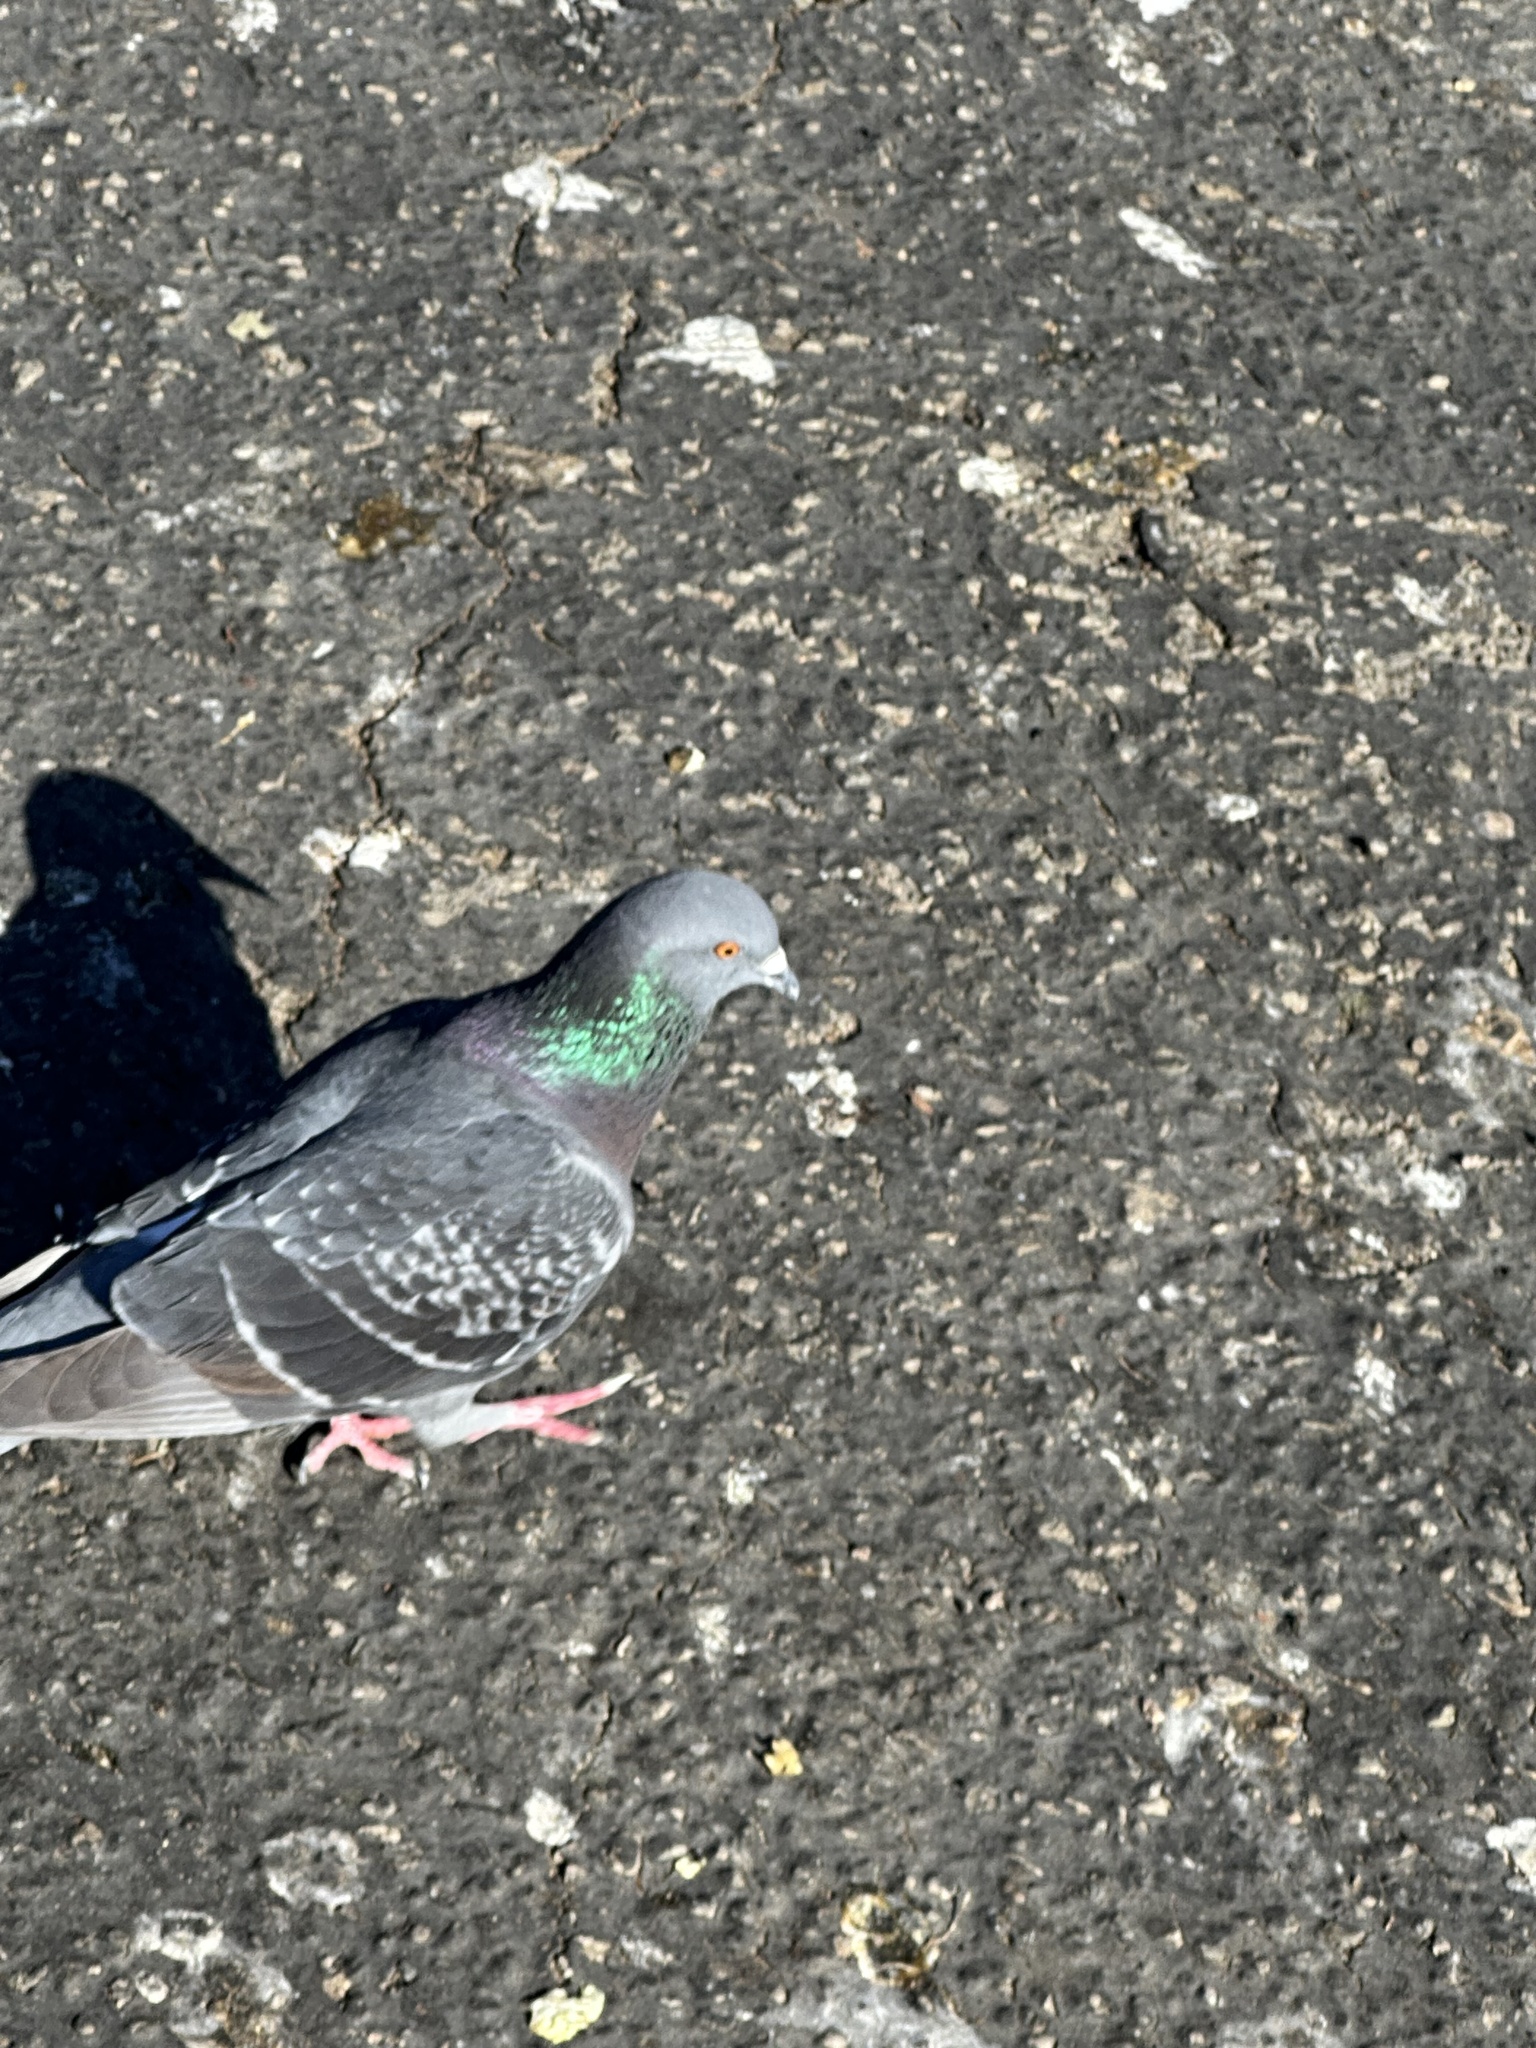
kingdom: Animalia
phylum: Chordata
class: Aves
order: Columbiformes
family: Columbidae
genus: Columba
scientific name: Columba livia
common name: Rock pigeon
